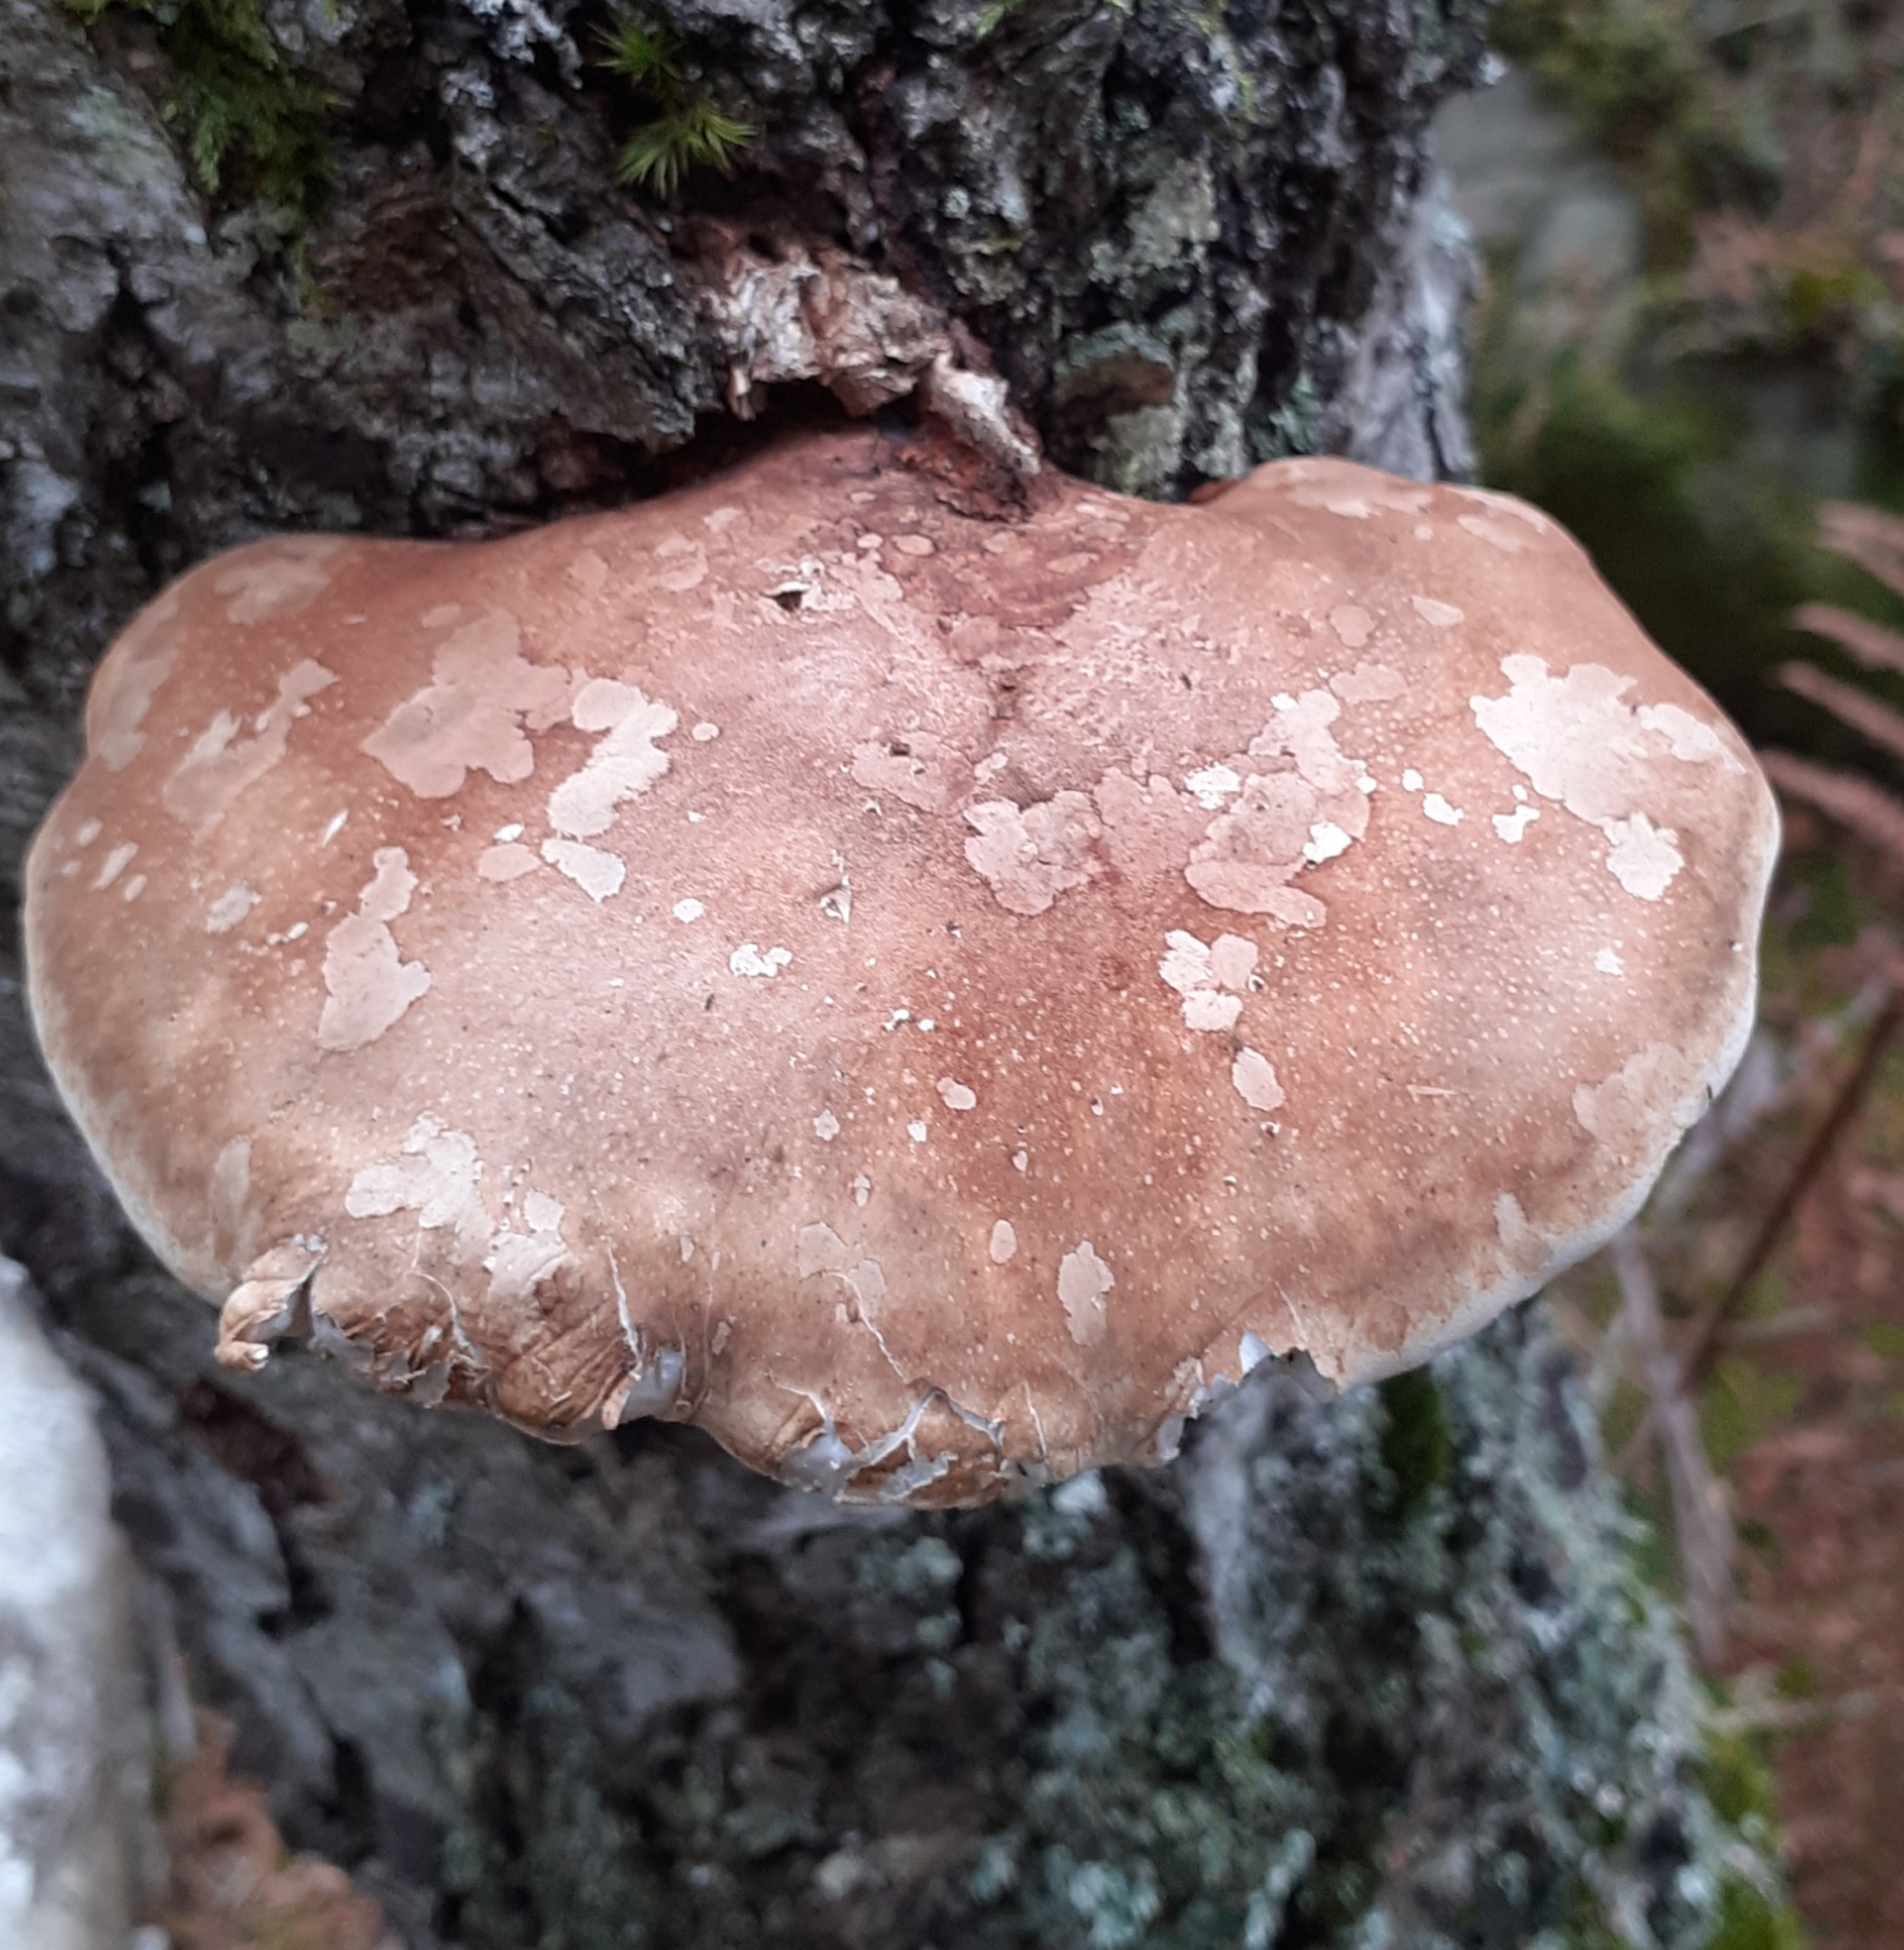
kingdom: Fungi
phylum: Basidiomycota
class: Agaricomycetes
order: Polyporales
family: Fomitopsidaceae
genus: Fomitopsis
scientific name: Fomitopsis betulina
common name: Birch polypore
